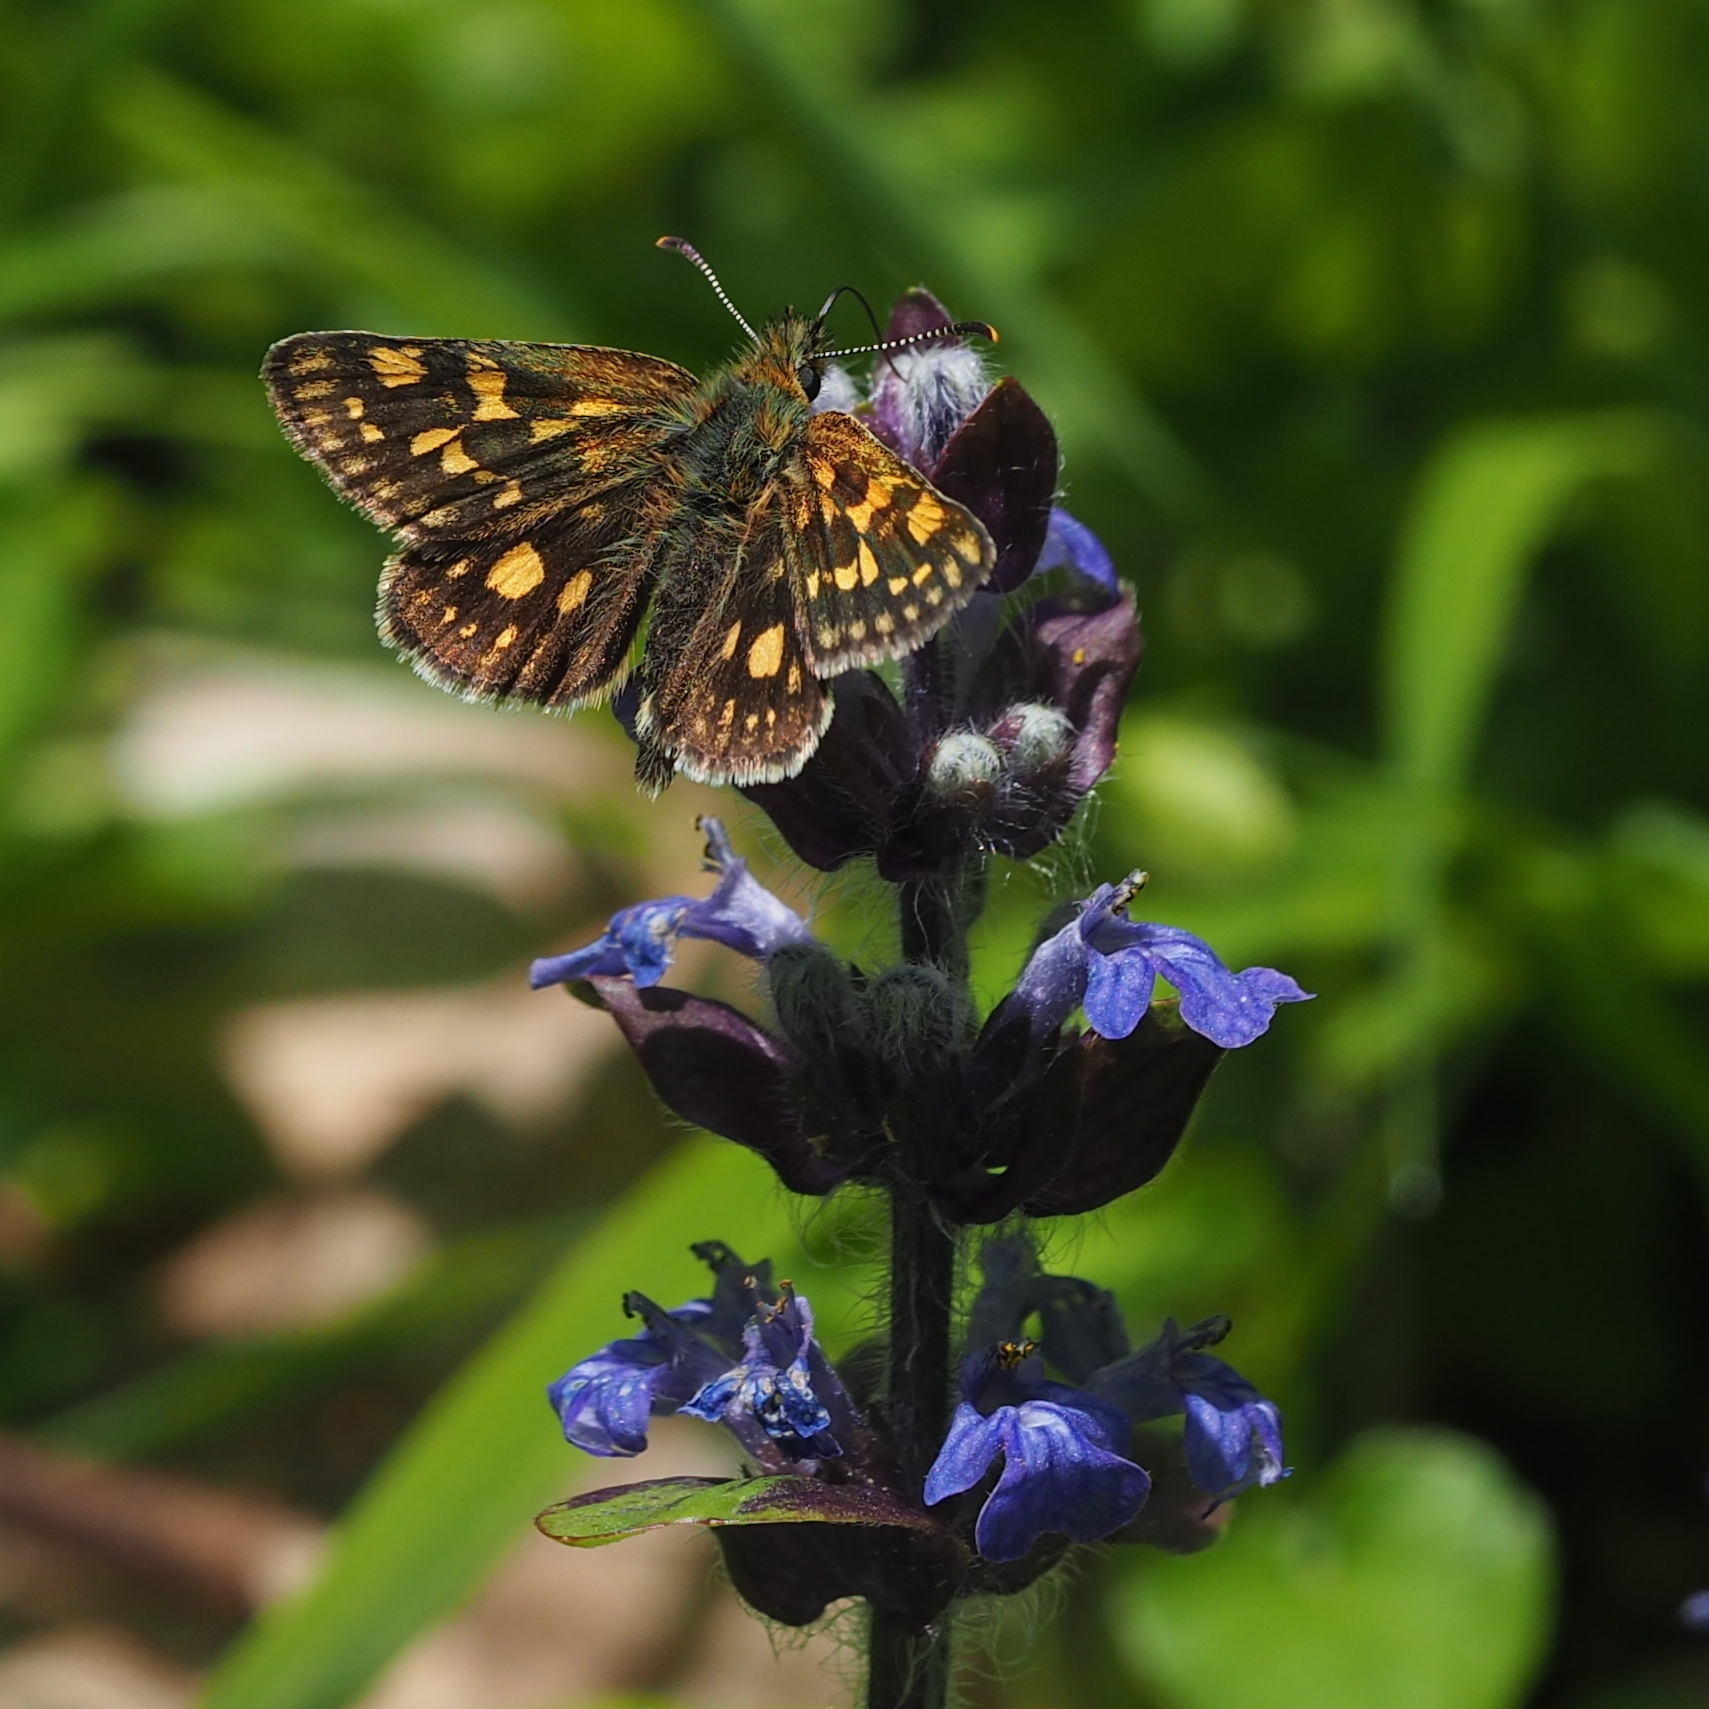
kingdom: Animalia
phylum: Arthropoda
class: Insecta
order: Lepidoptera
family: Hesperiidae
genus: Carterocephalus
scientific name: Carterocephalus palaemon
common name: Chequered skipper
